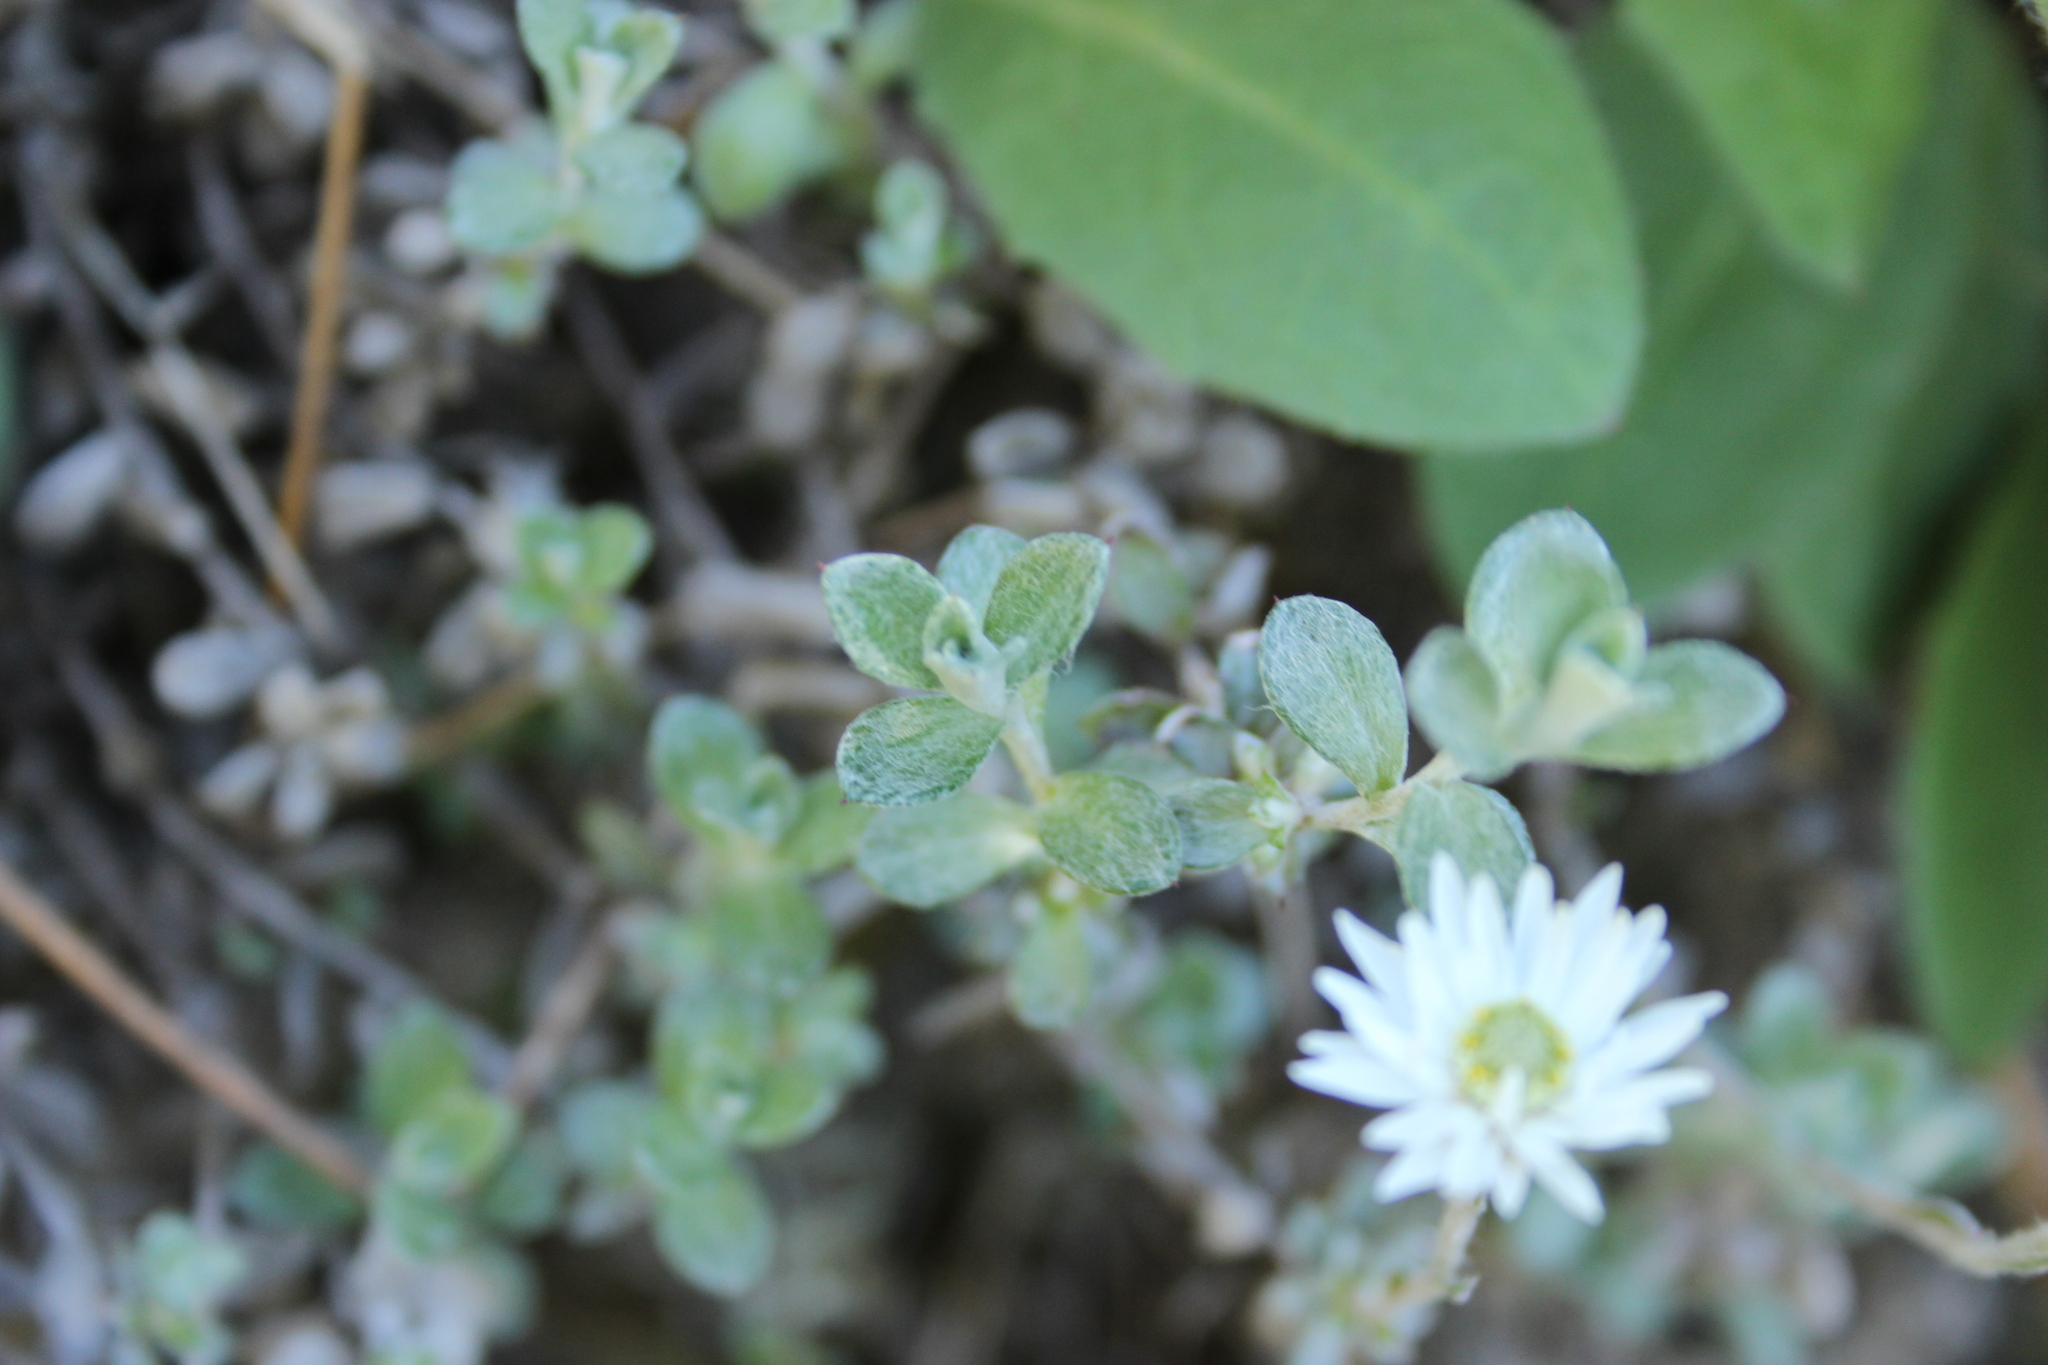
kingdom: Plantae
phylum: Tracheophyta
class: Magnoliopsida
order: Asterales
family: Asteraceae
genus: Anaphalioides
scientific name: Anaphalioides bellidioides
